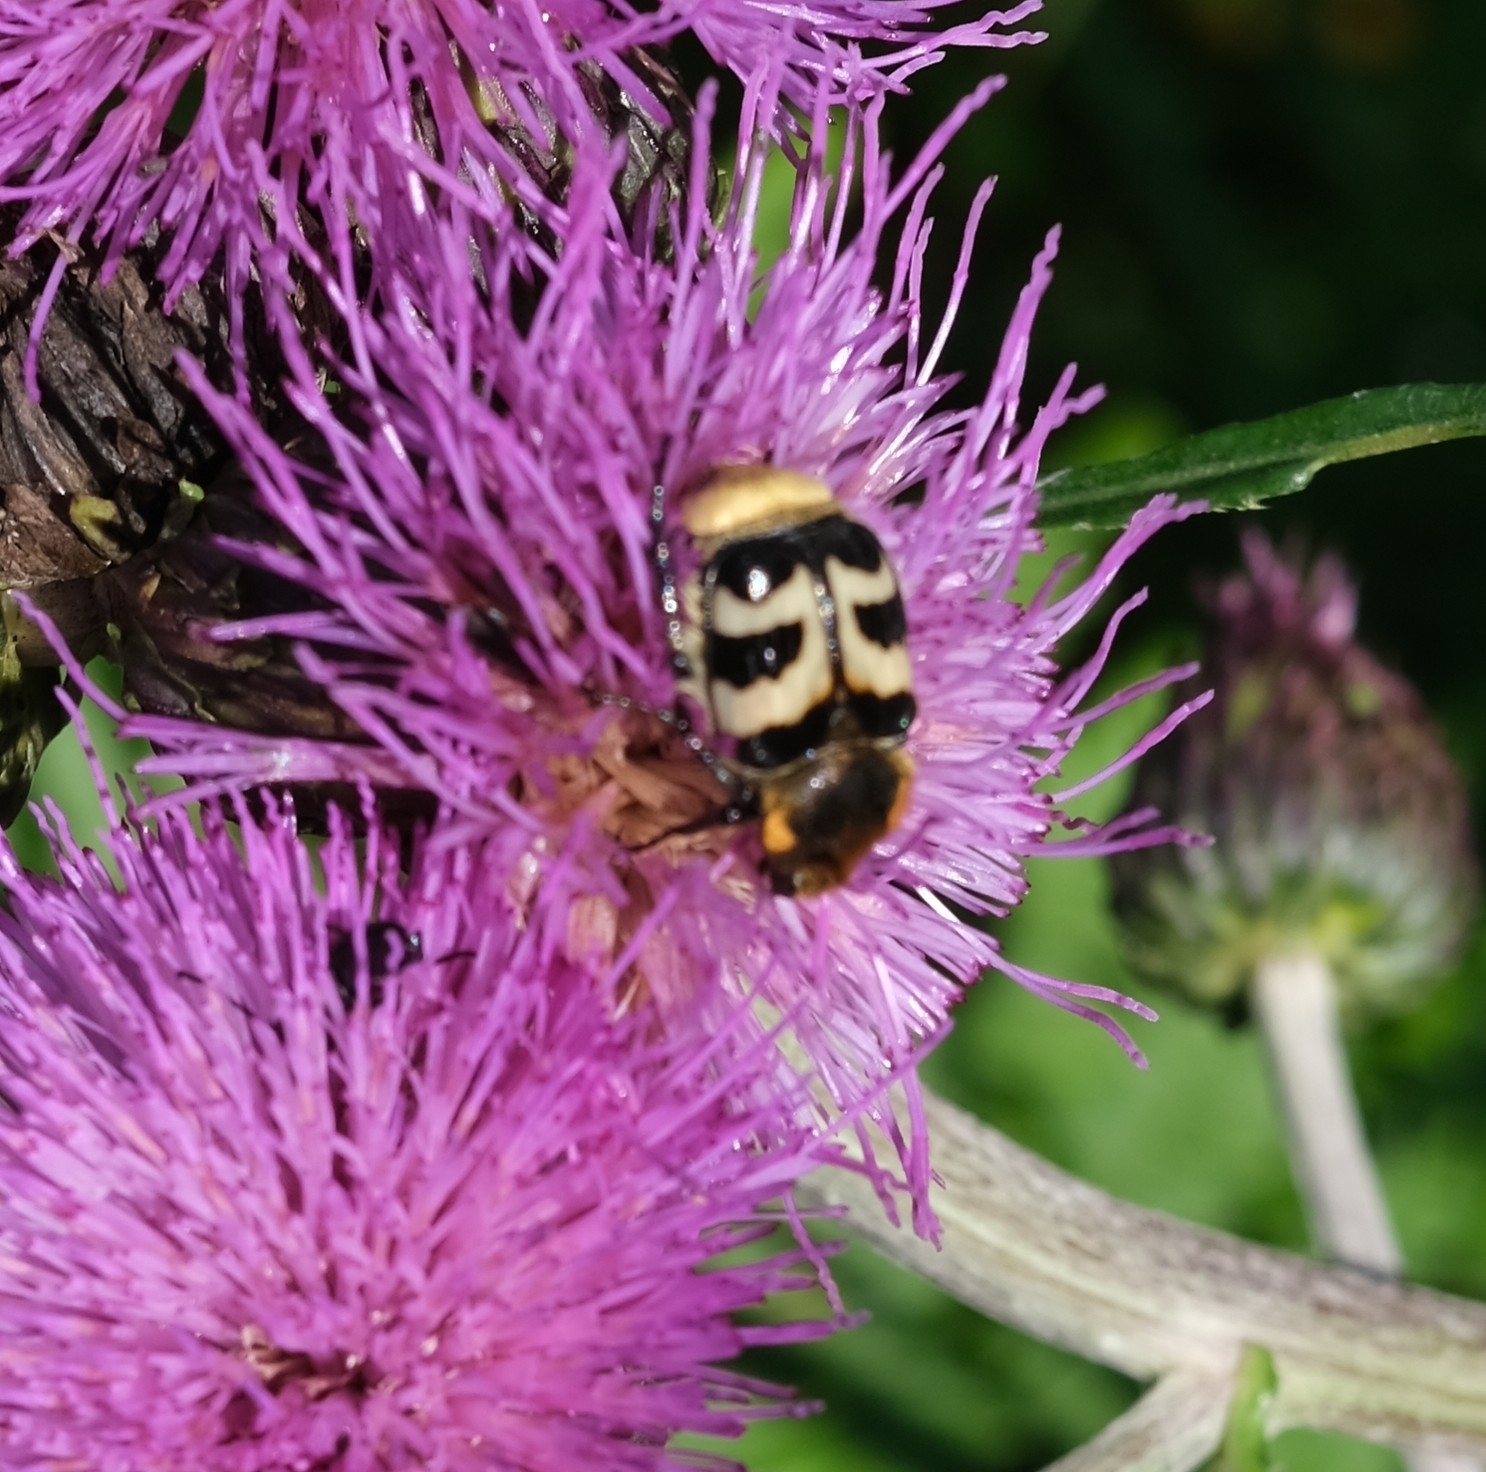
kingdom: Animalia
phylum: Arthropoda
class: Insecta
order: Coleoptera
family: Scarabaeidae
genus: Trichius
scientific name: Trichius fasciatus
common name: Bee beetle
